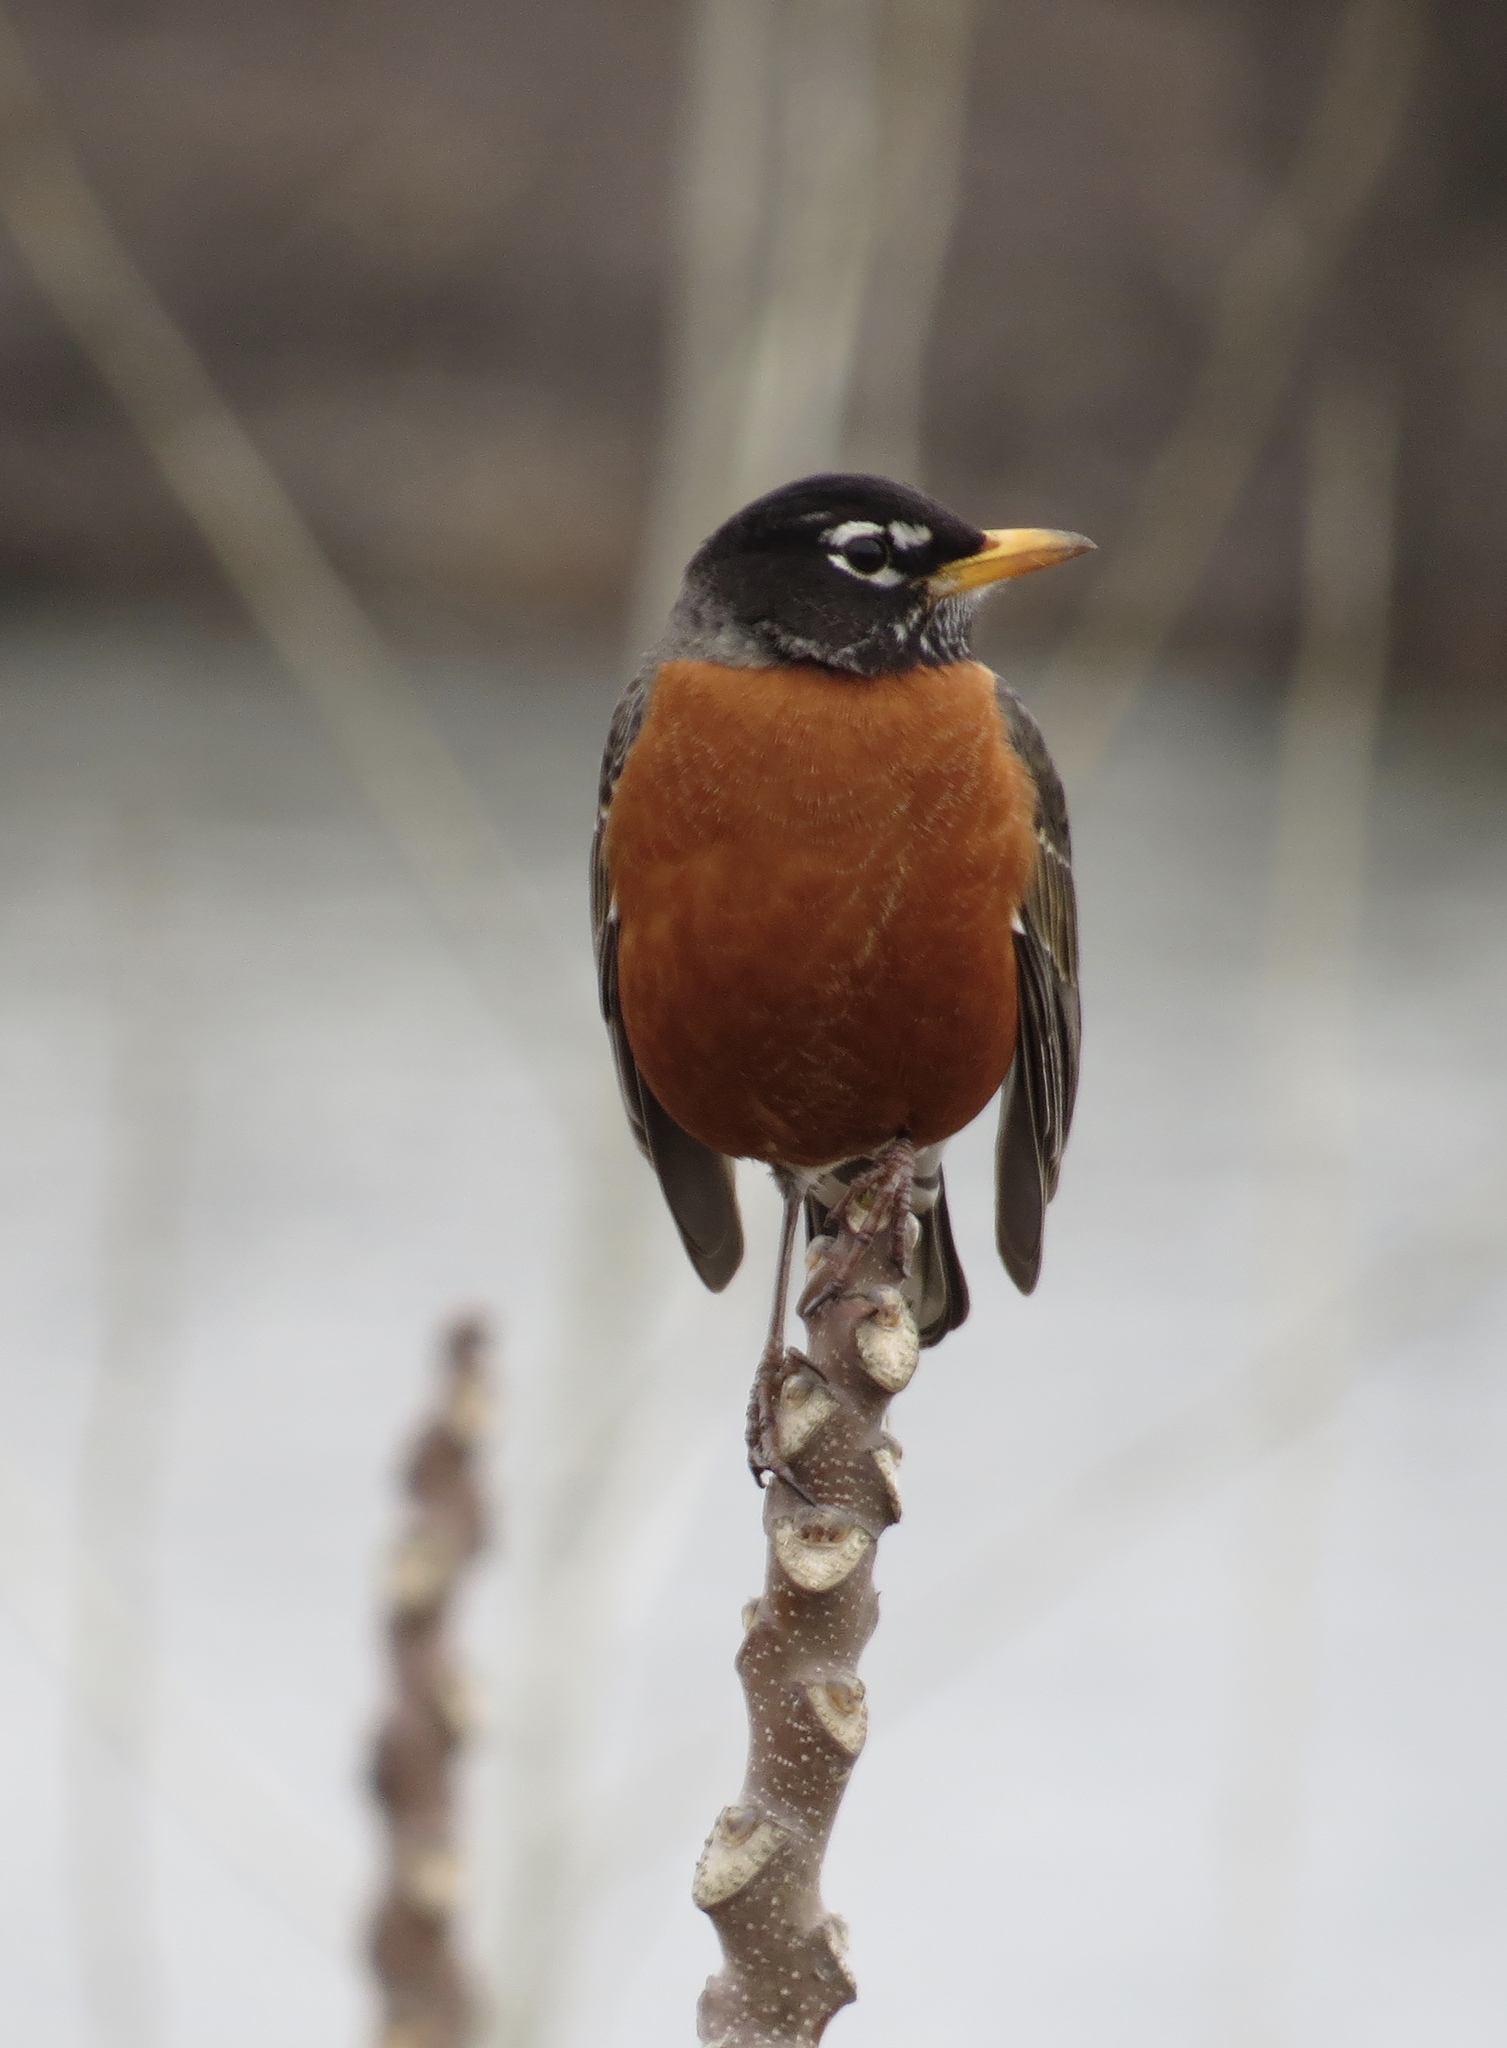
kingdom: Animalia
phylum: Chordata
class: Aves
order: Passeriformes
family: Turdidae
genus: Turdus
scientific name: Turdus migratorius
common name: American robin
